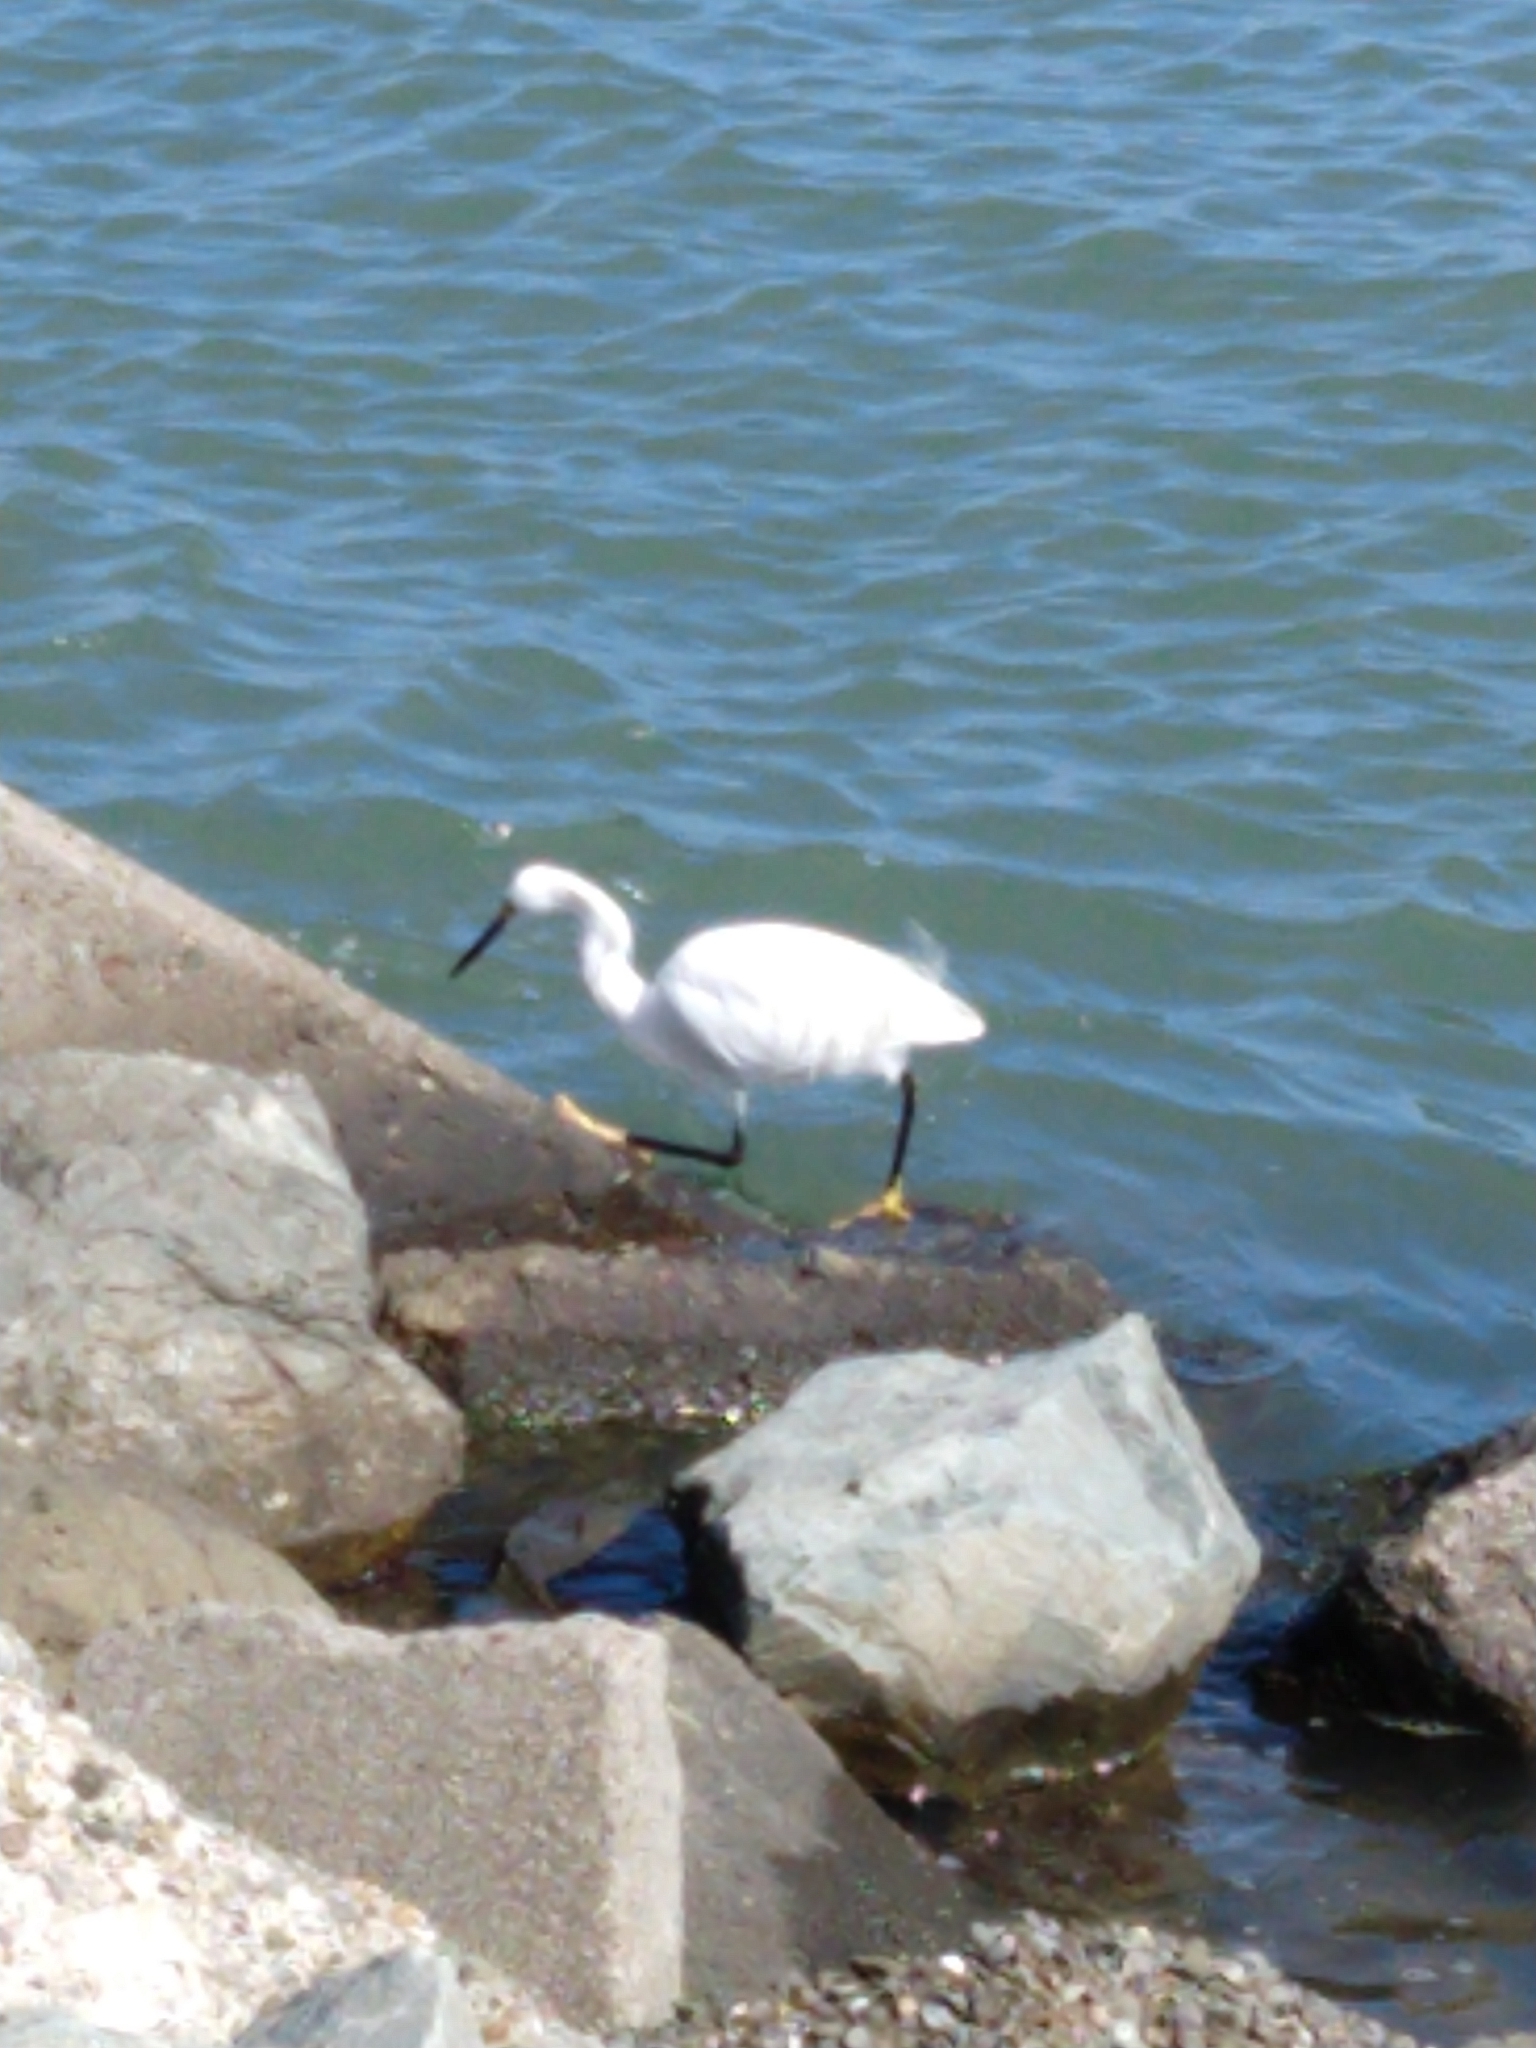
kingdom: Animalia
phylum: Chordata
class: Aves
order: Pelecaniformes
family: Ardeidae
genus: Egretta
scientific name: Egretta thula
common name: Snowy egret
